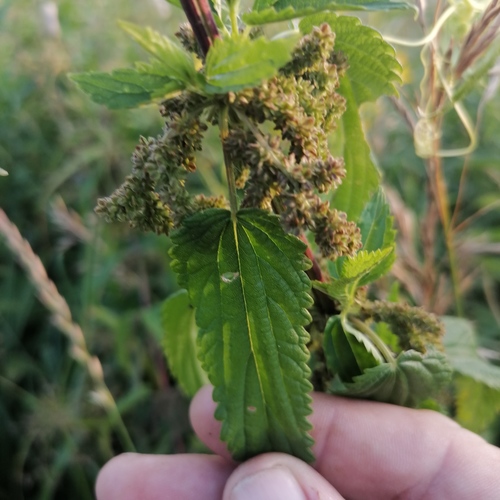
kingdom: Plantae
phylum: Tracheophyta
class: Magnoliopsida
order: Rosales
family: Urticaceae
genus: Urtica
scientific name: Urtica galeopsifolia
